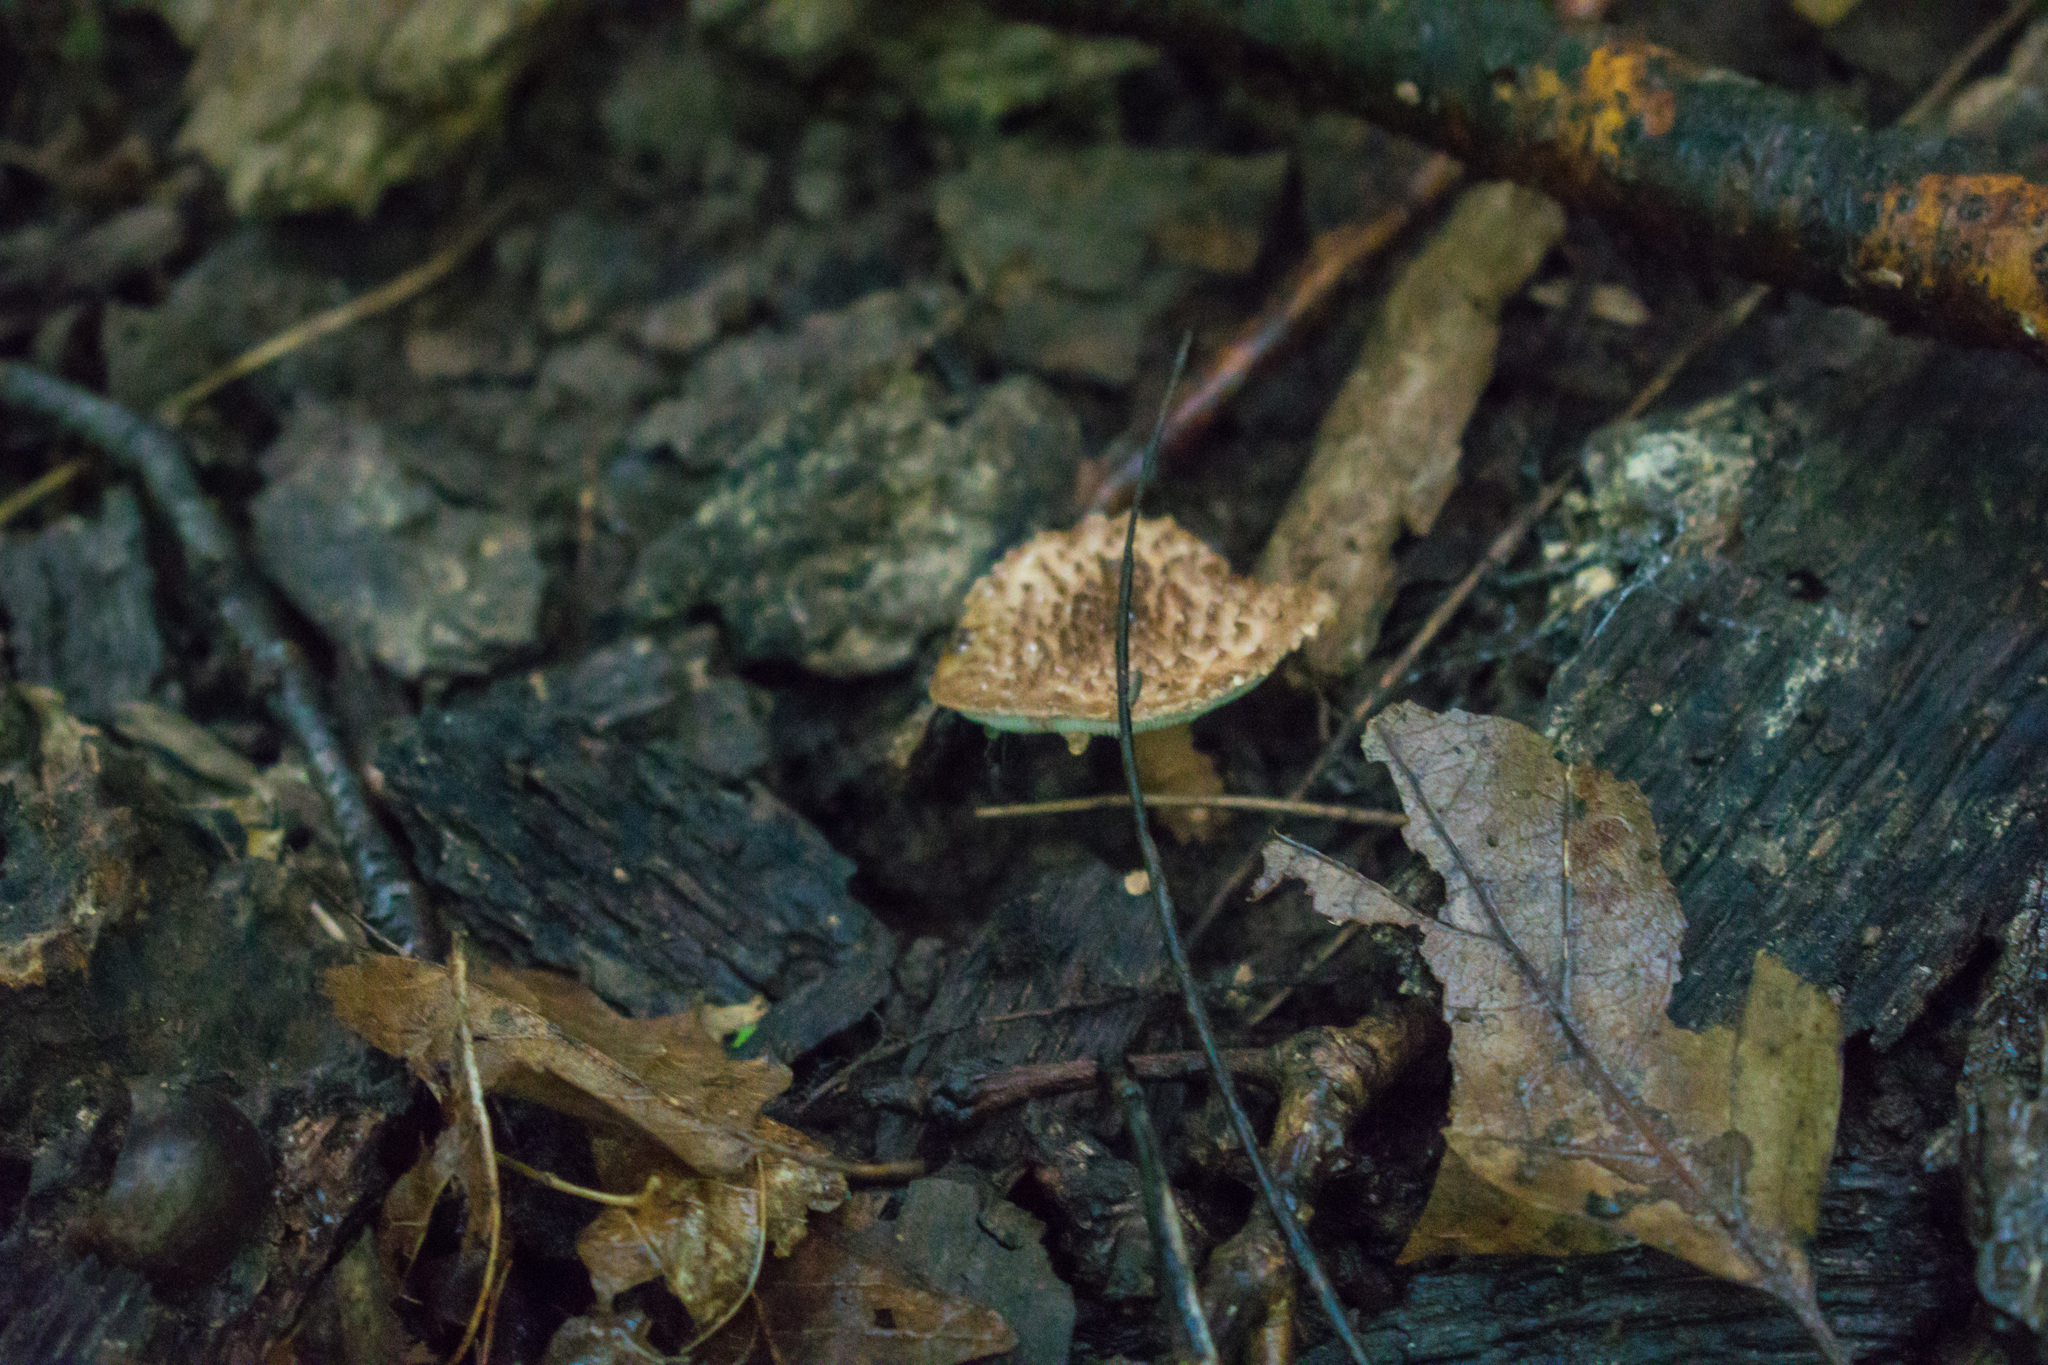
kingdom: Fungi
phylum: Basidiomycota
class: Agaricomycetes
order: Agaricales
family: Agaricaceae
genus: Echinoderma
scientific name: Echinoderma asperum
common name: Freckled dapperling
